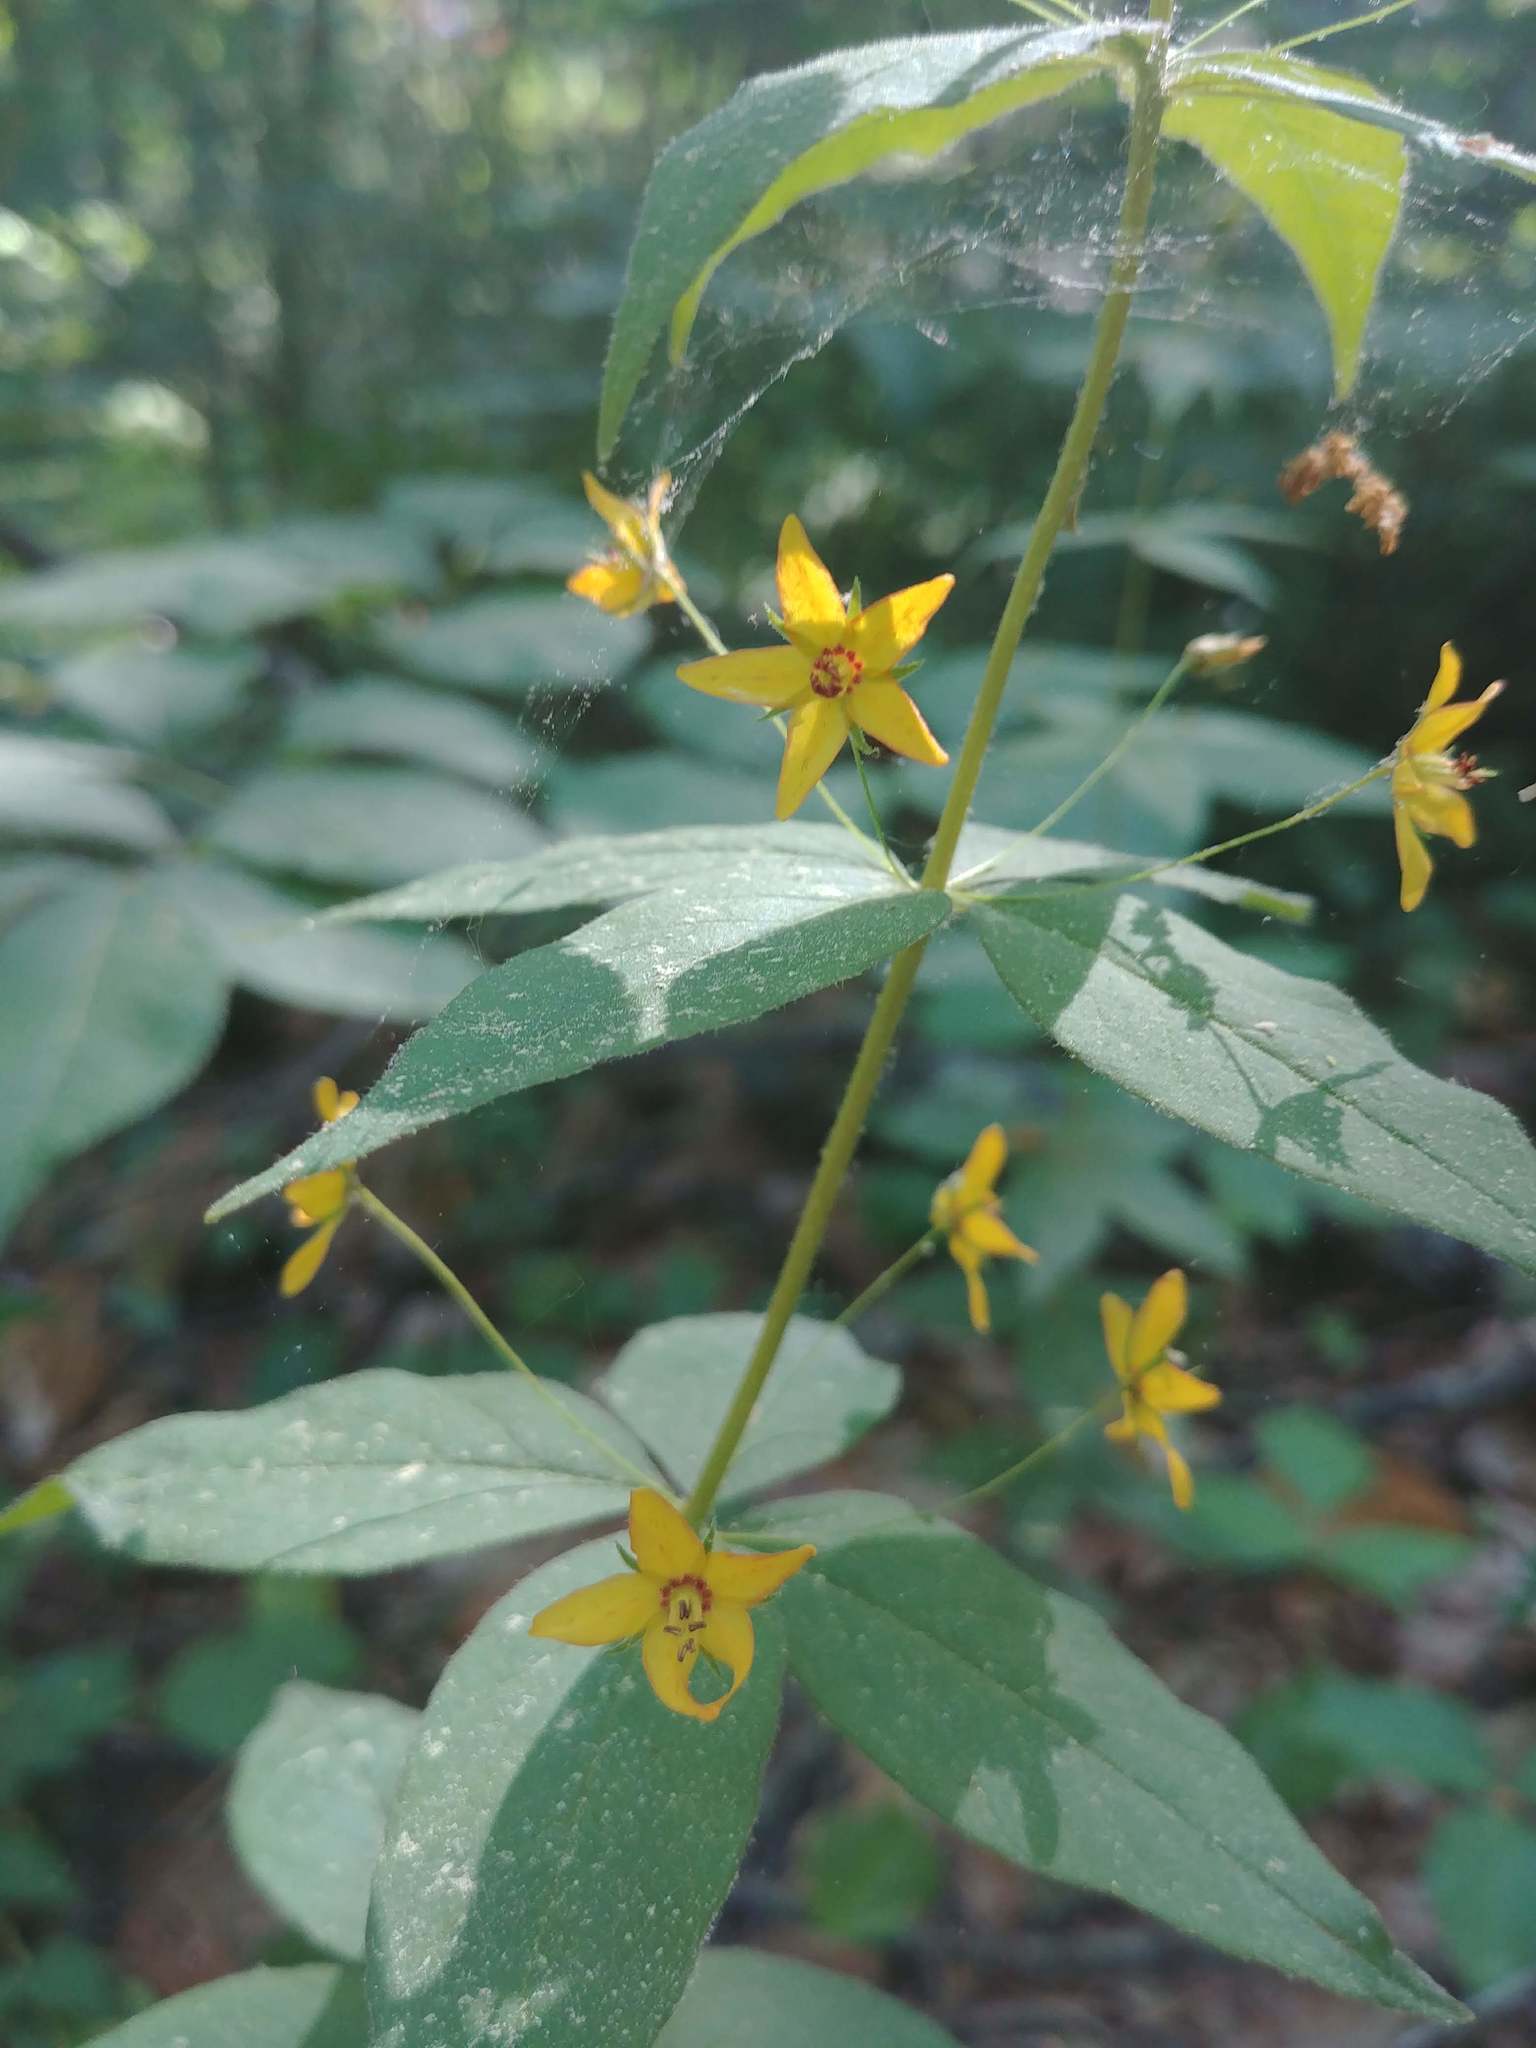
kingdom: Plantae
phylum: Tracheophyta
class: Magnoliopsida
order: Ericales
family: Primulaceae
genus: Lysimachia
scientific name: Lysimachia quadrifolia
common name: Whorled loosestrife
